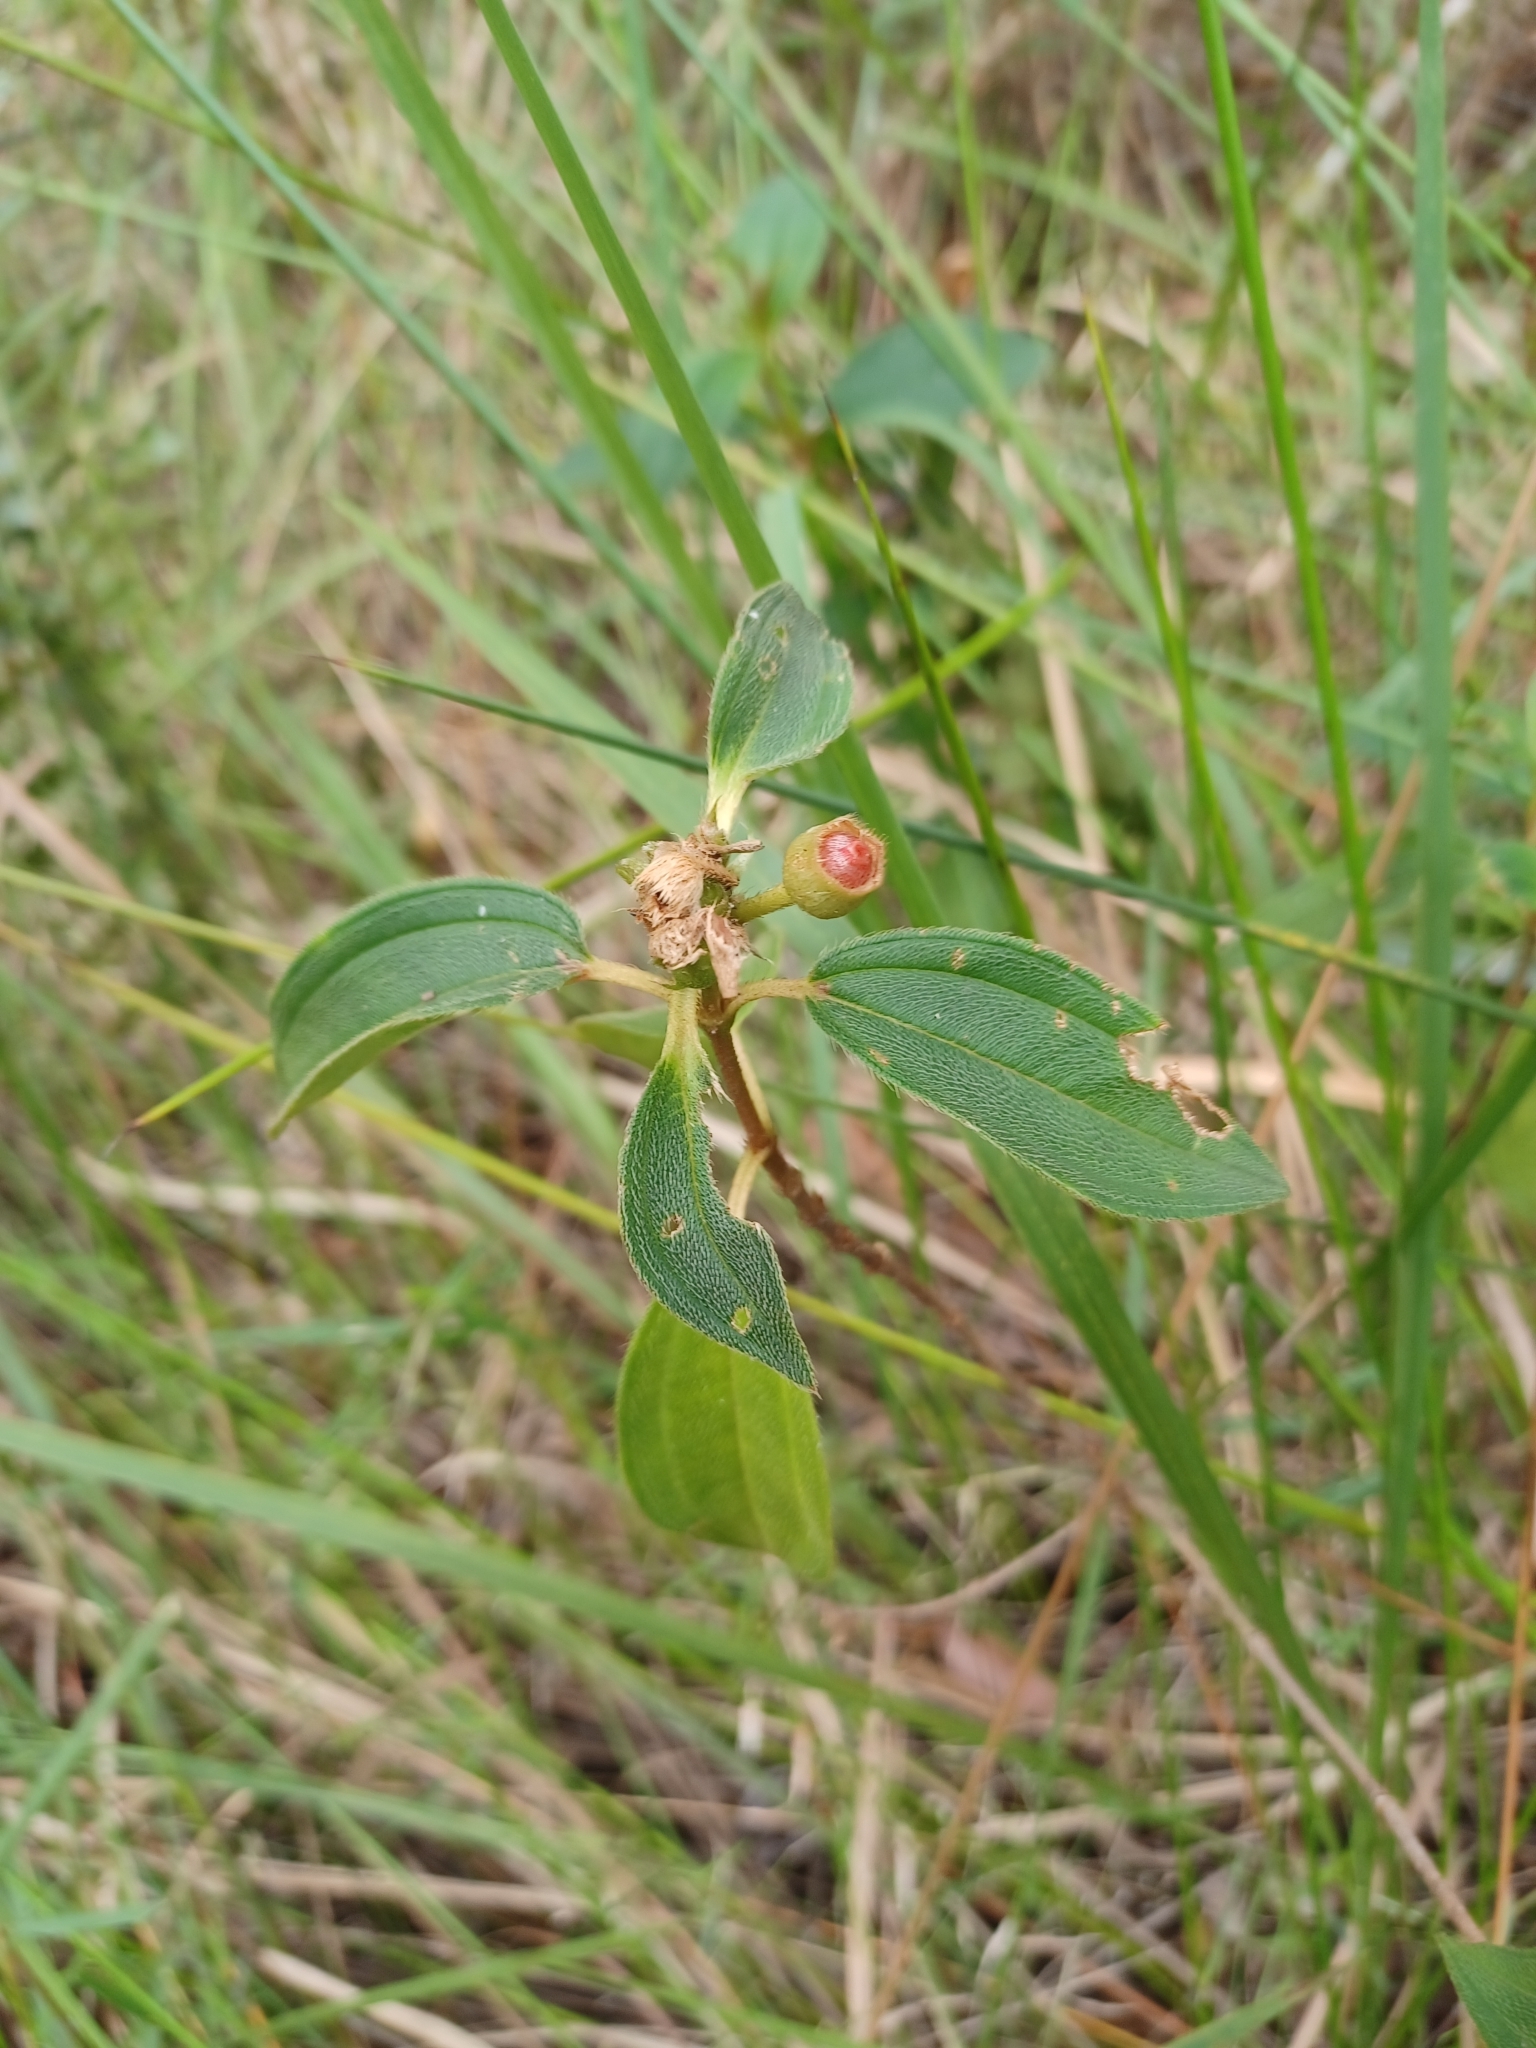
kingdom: Plantae
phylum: Tracheophyta
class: Magnoliopsida
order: Myrtales
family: Melastomataceae
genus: Melastoma
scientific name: Melastoma malabathricum
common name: Indian-rhododendron
